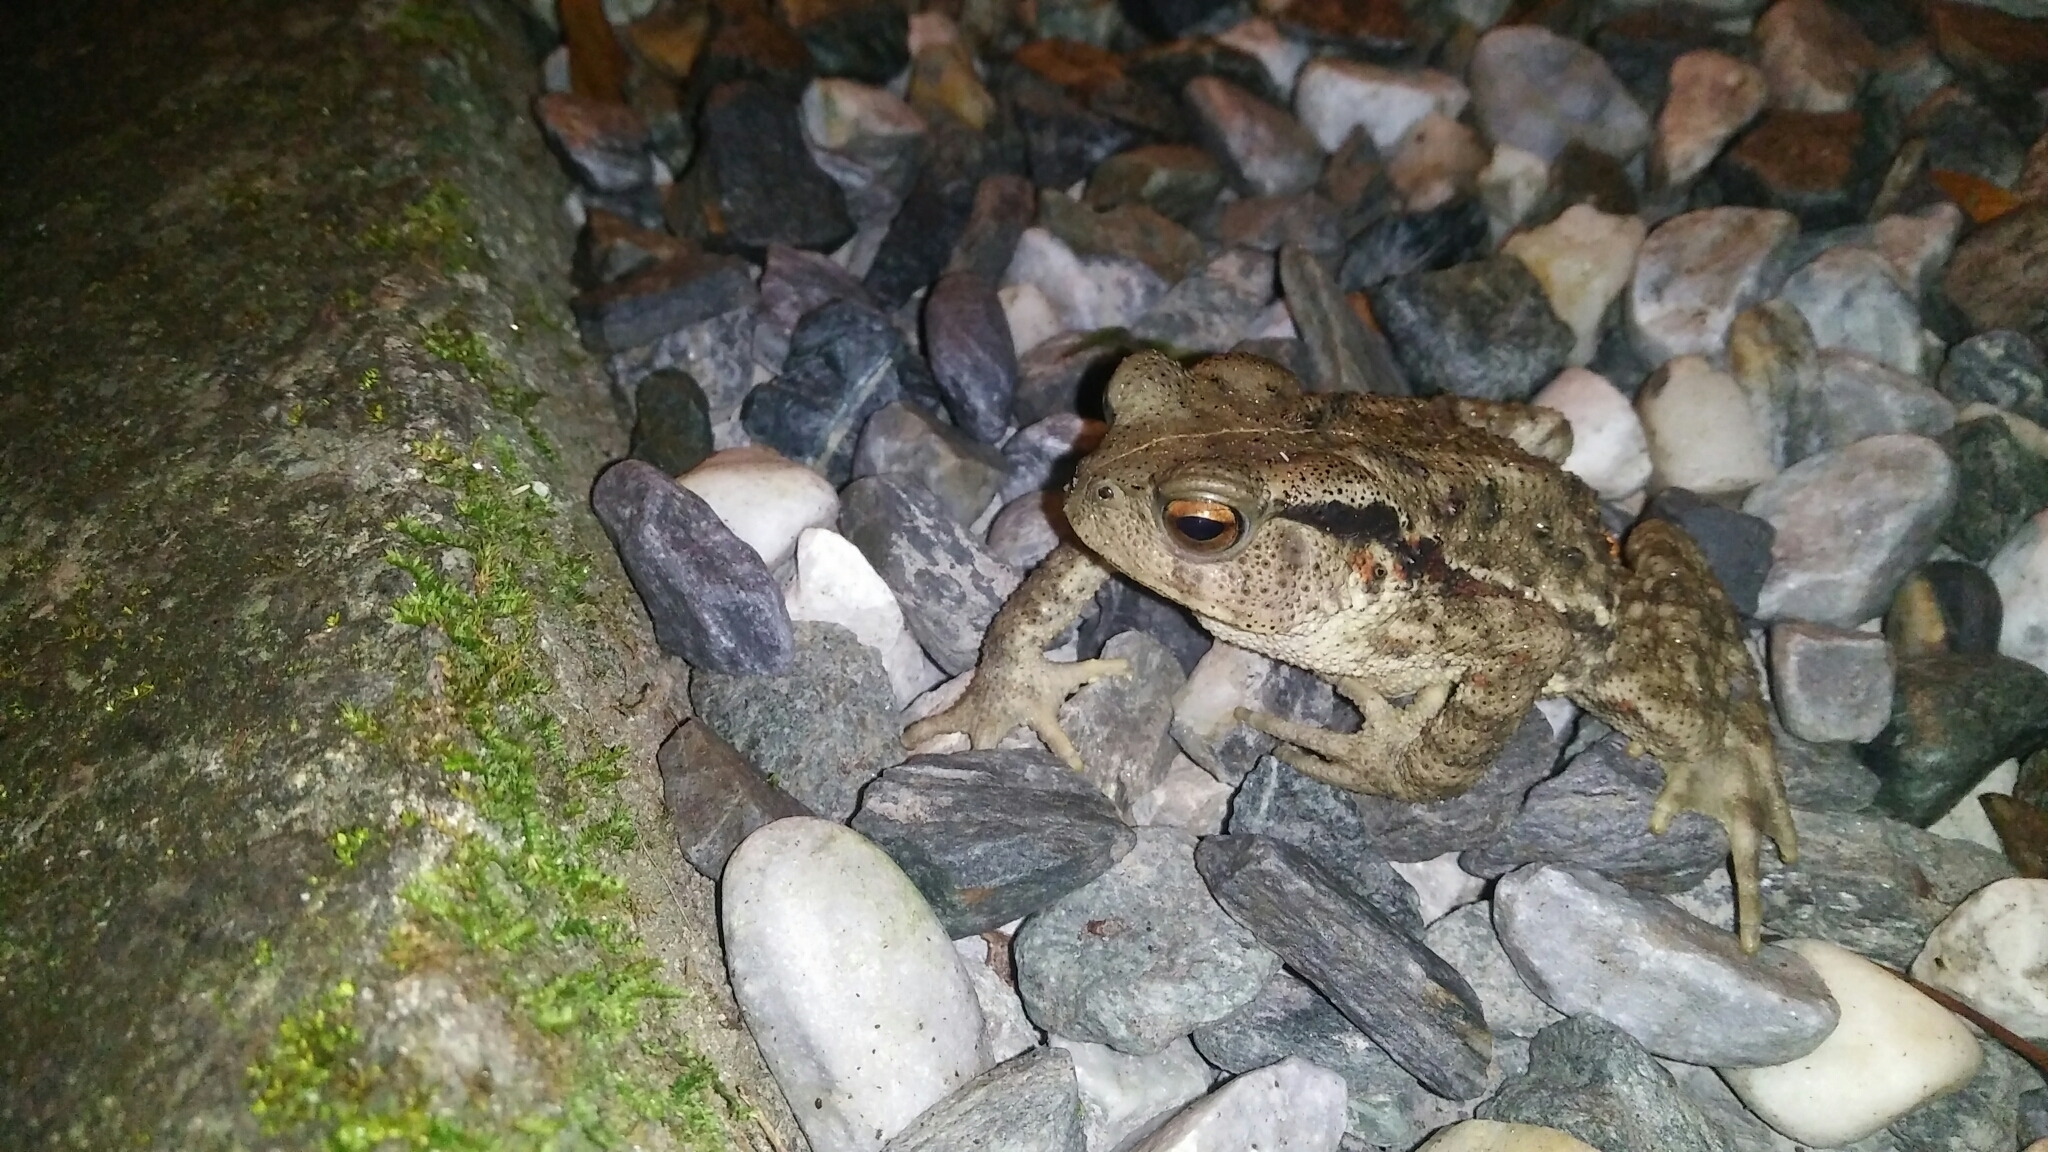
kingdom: Animalia
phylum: Chordata
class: Amphibia
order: Anura
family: Bufonidae
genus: Bufo
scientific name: Bufo bankorensis
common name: Bankor toad
